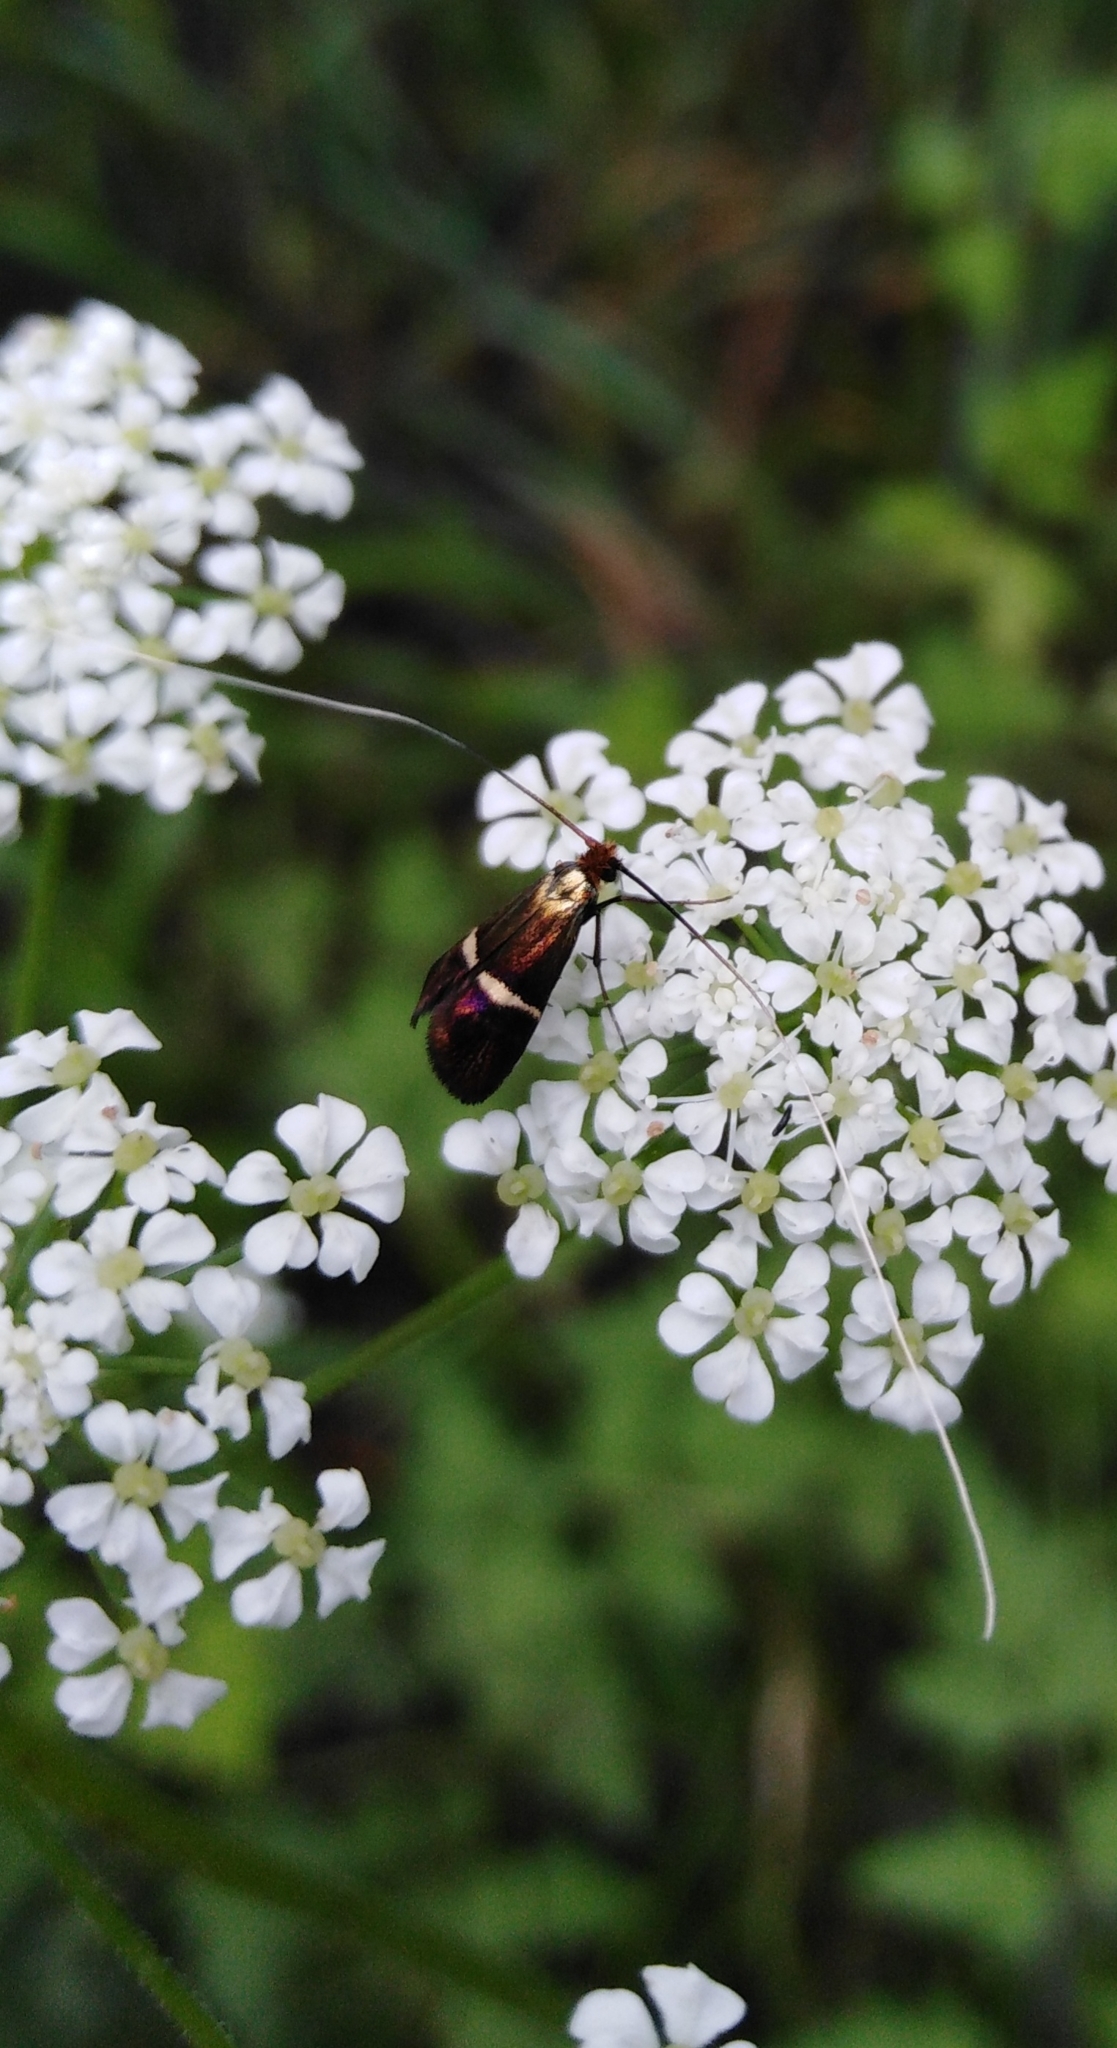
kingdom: Animalia
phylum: Arthropoda
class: Insecta
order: Lepidoptera
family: Adelidae
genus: Adela
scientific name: Adela australis
